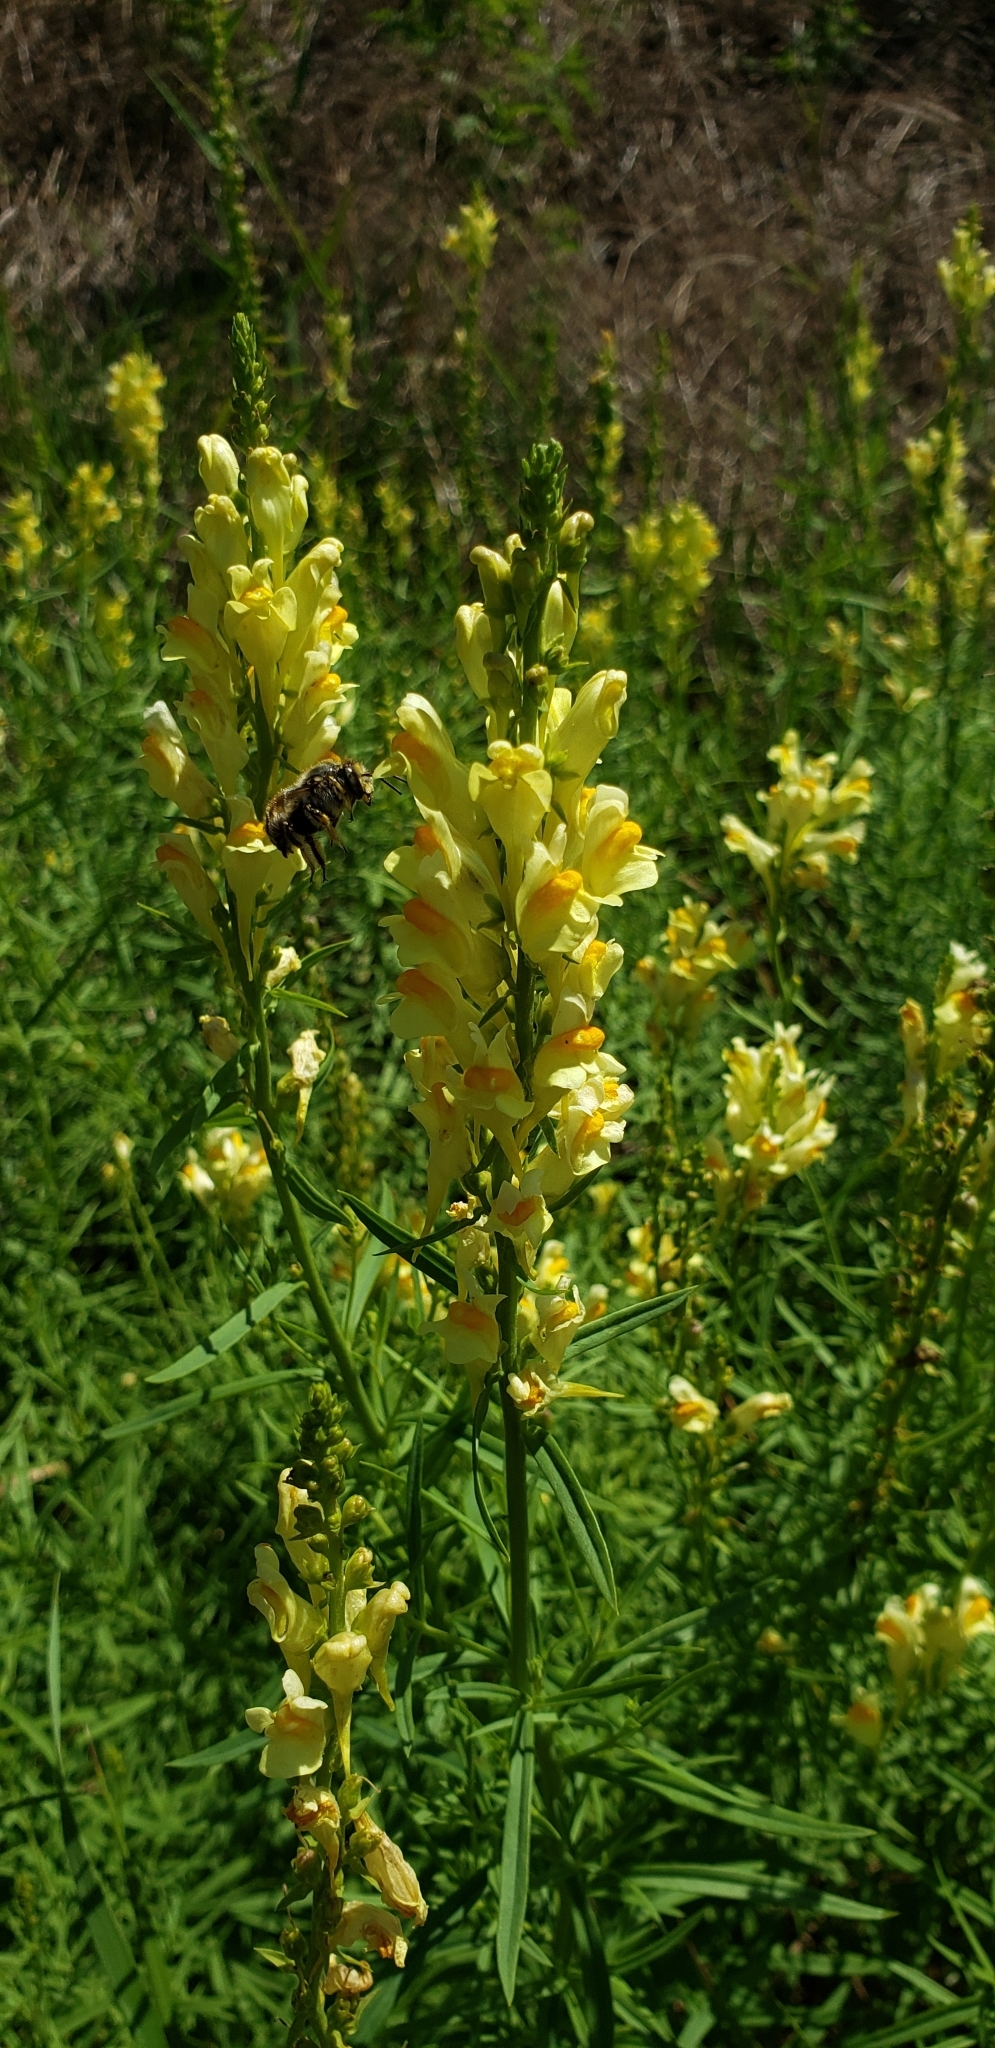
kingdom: Plantae
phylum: Tracheophyta
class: Magnoliopsida
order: Lamiales
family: Plantaginaceae
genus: Linaria
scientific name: Linaria vulgaris
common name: Butter and eggs
